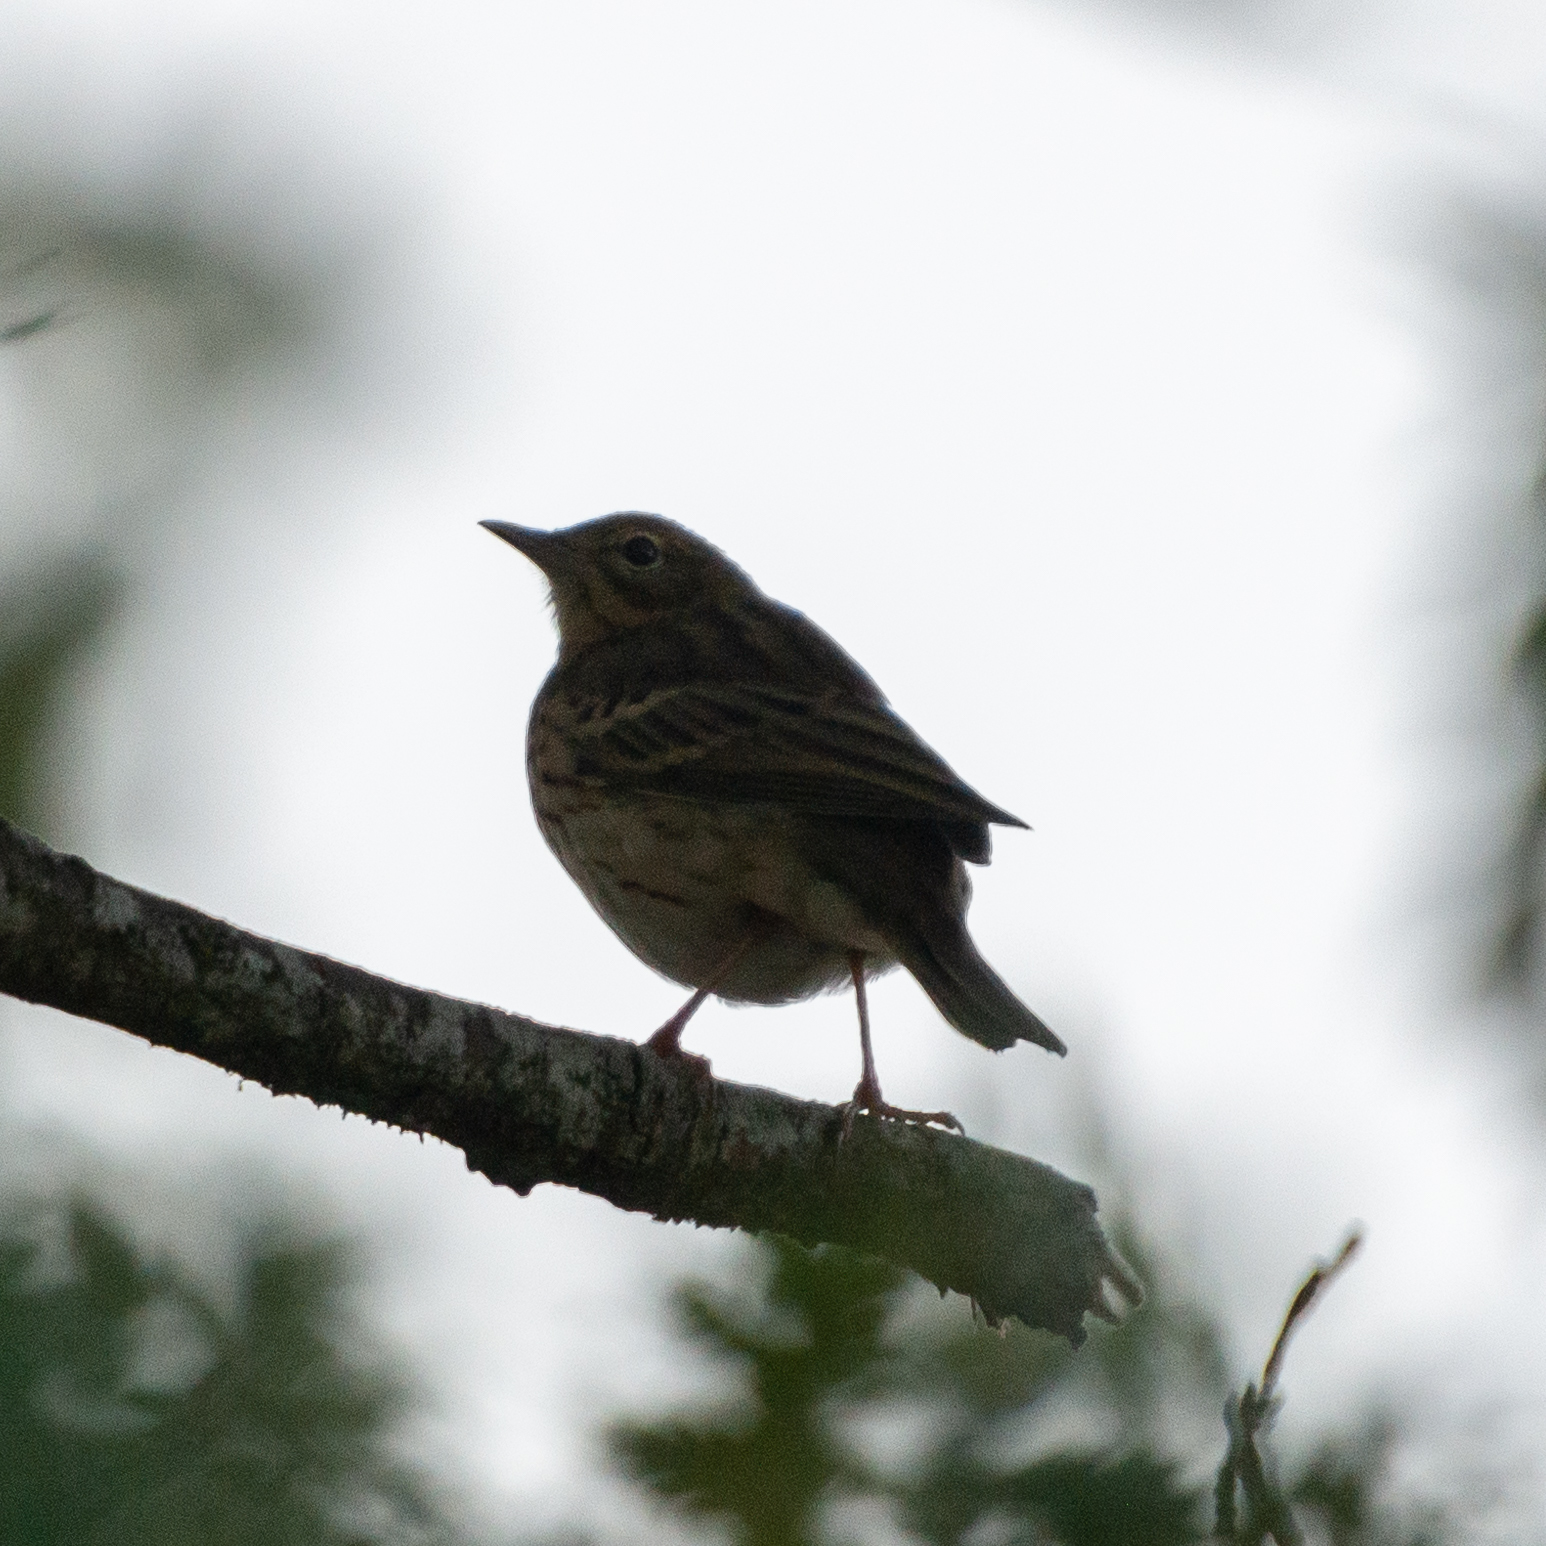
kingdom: Animalia
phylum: Chordata
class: Aves
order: Passeriformes
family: Motacillidae
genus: Anthus
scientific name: Anthus trivialis
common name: Tree pipit
